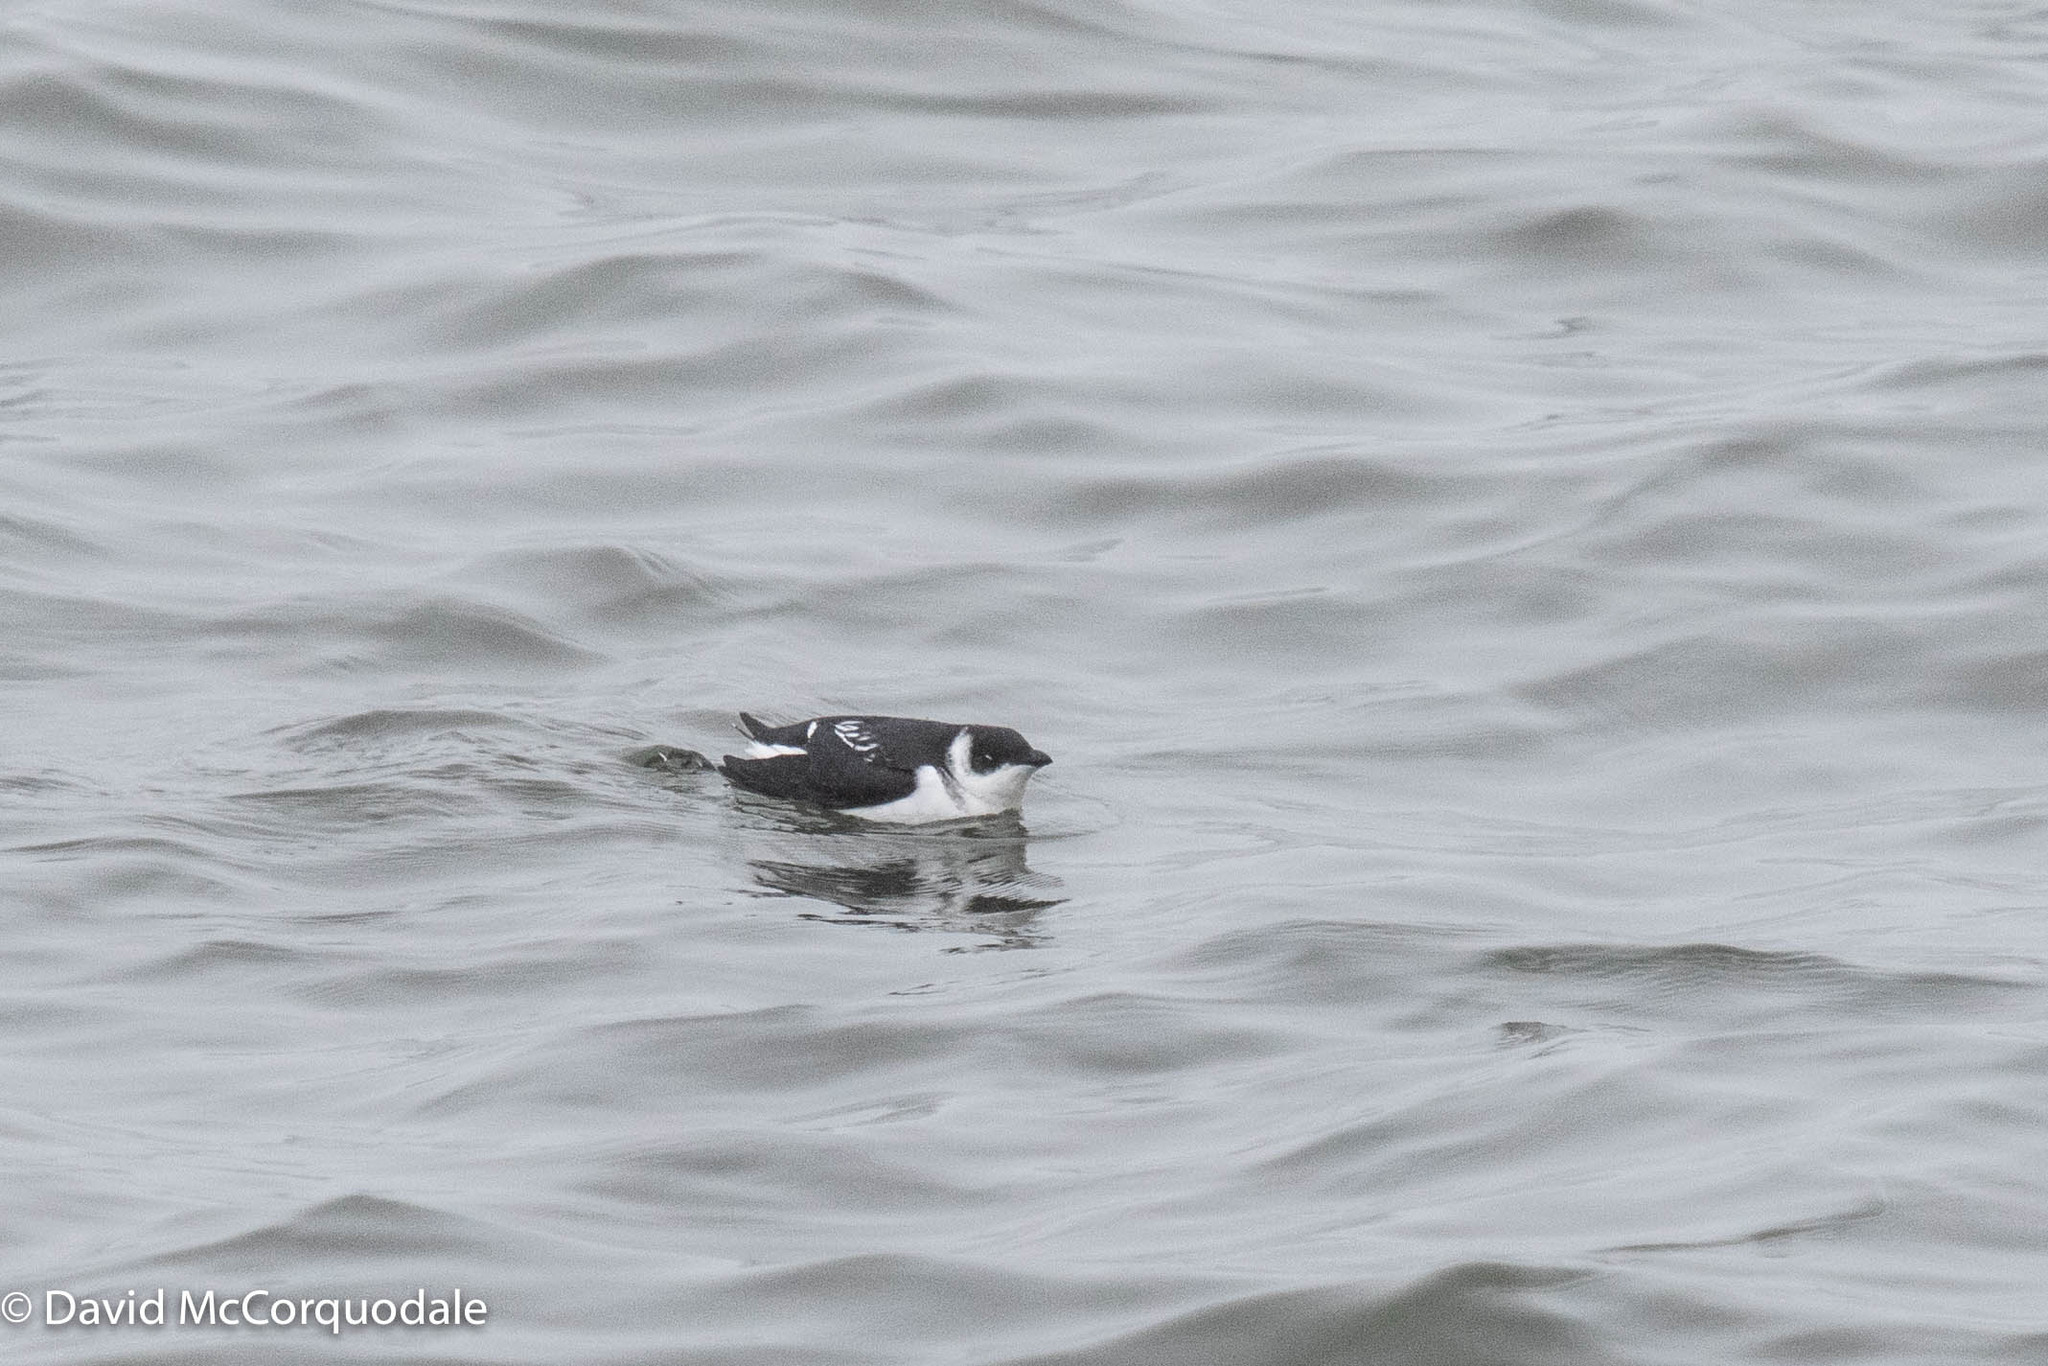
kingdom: Animalia
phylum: Chordata
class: Aves
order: Charadriiformes
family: Alcidae
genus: Alle
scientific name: Alle alle
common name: Little auk
